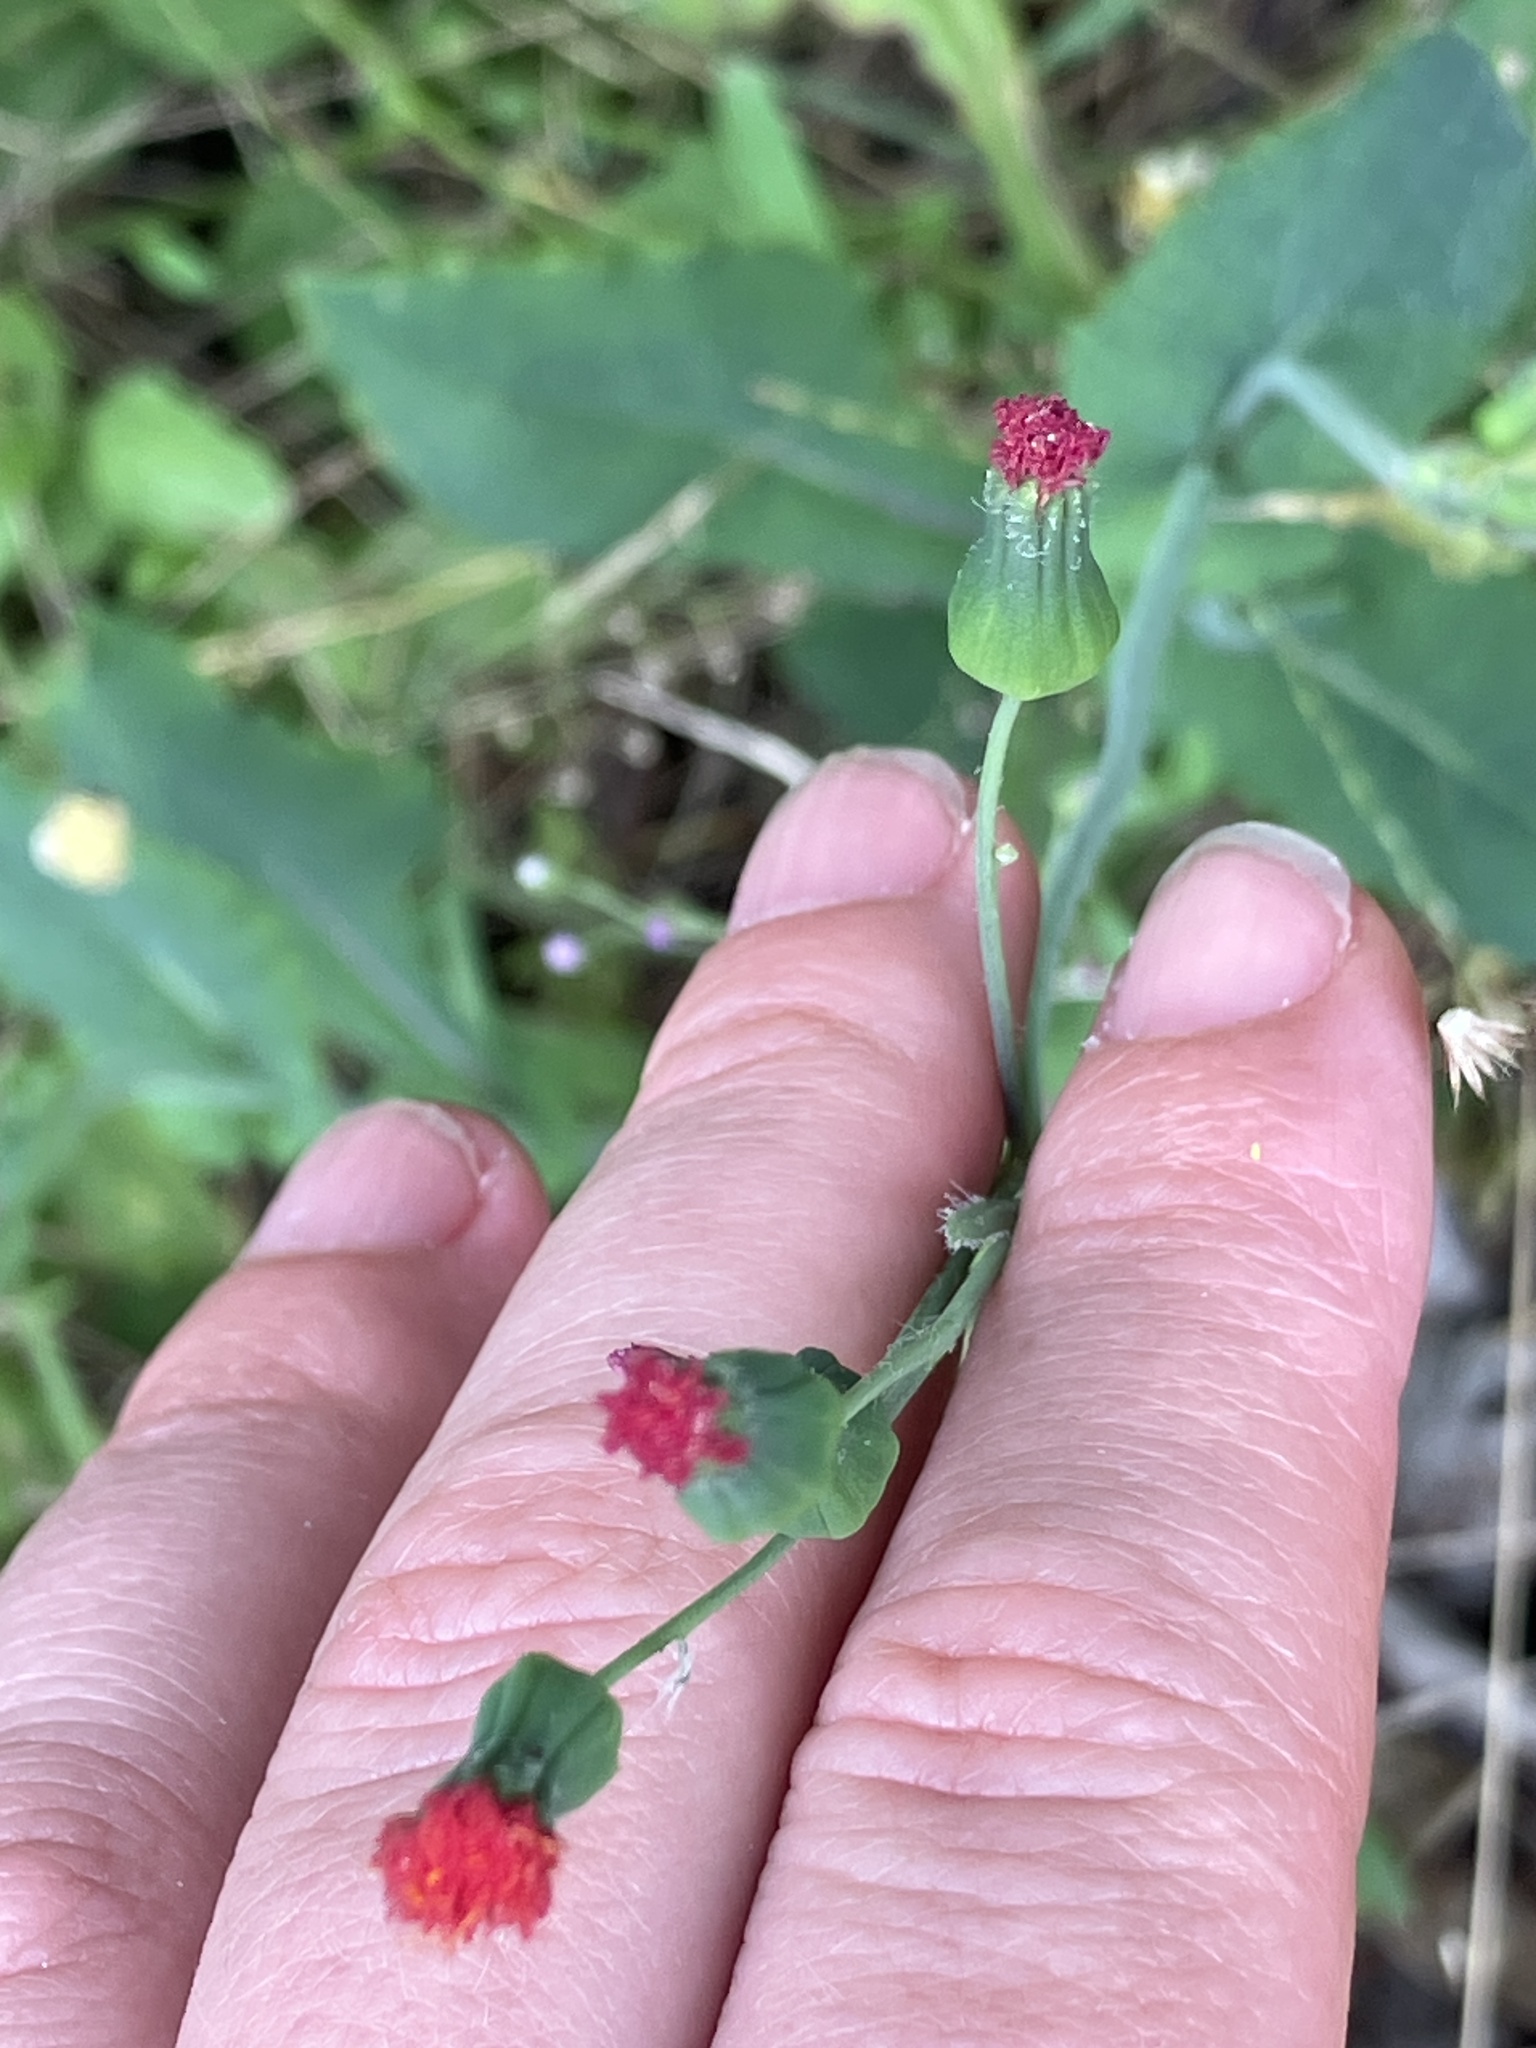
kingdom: Plantae
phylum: Tracheophyta
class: Magnoliopsida
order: Asterales
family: Asteraceae
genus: Emilia
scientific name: Emilia fosbergii
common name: Florida tasselflower
